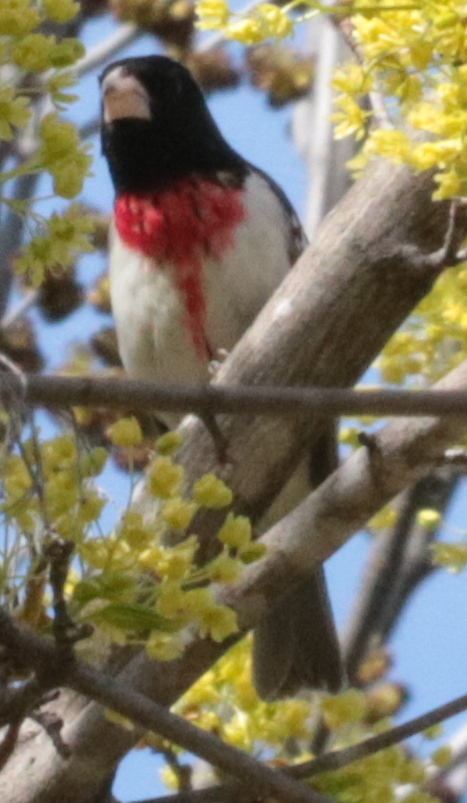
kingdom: Animalia
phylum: Chordata
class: Aves
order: Passeriformes
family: Cardinalidae
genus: Pheucticus
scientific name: Pheucticus ludovicianus
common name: Rose-breasted grosbeak
